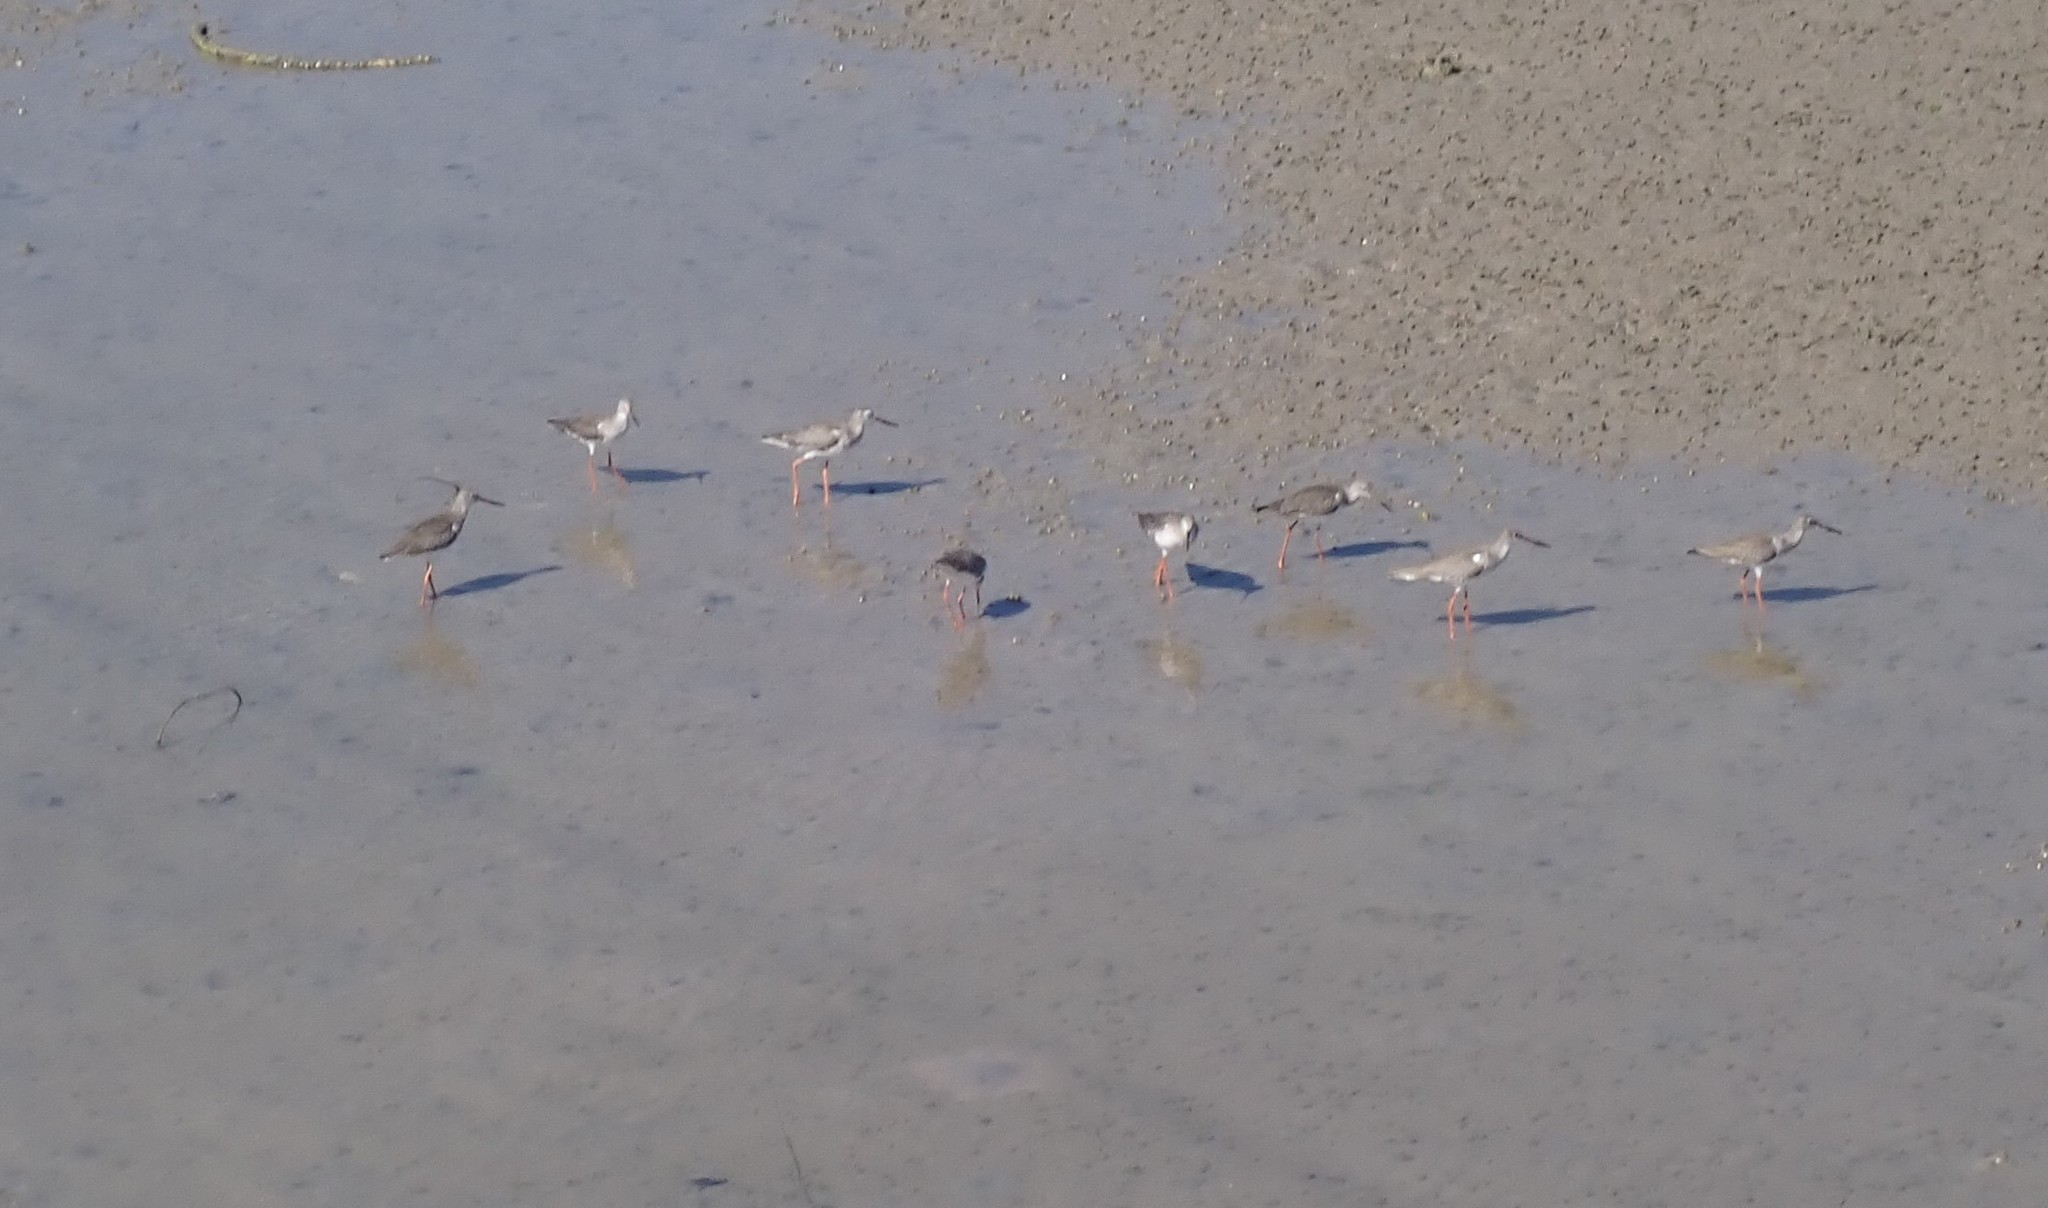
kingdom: Animalia
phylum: Chordata
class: Aves
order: Charadriiformes
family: Scolopacidae
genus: Tringa
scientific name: Tringa totanus
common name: Common redshank
